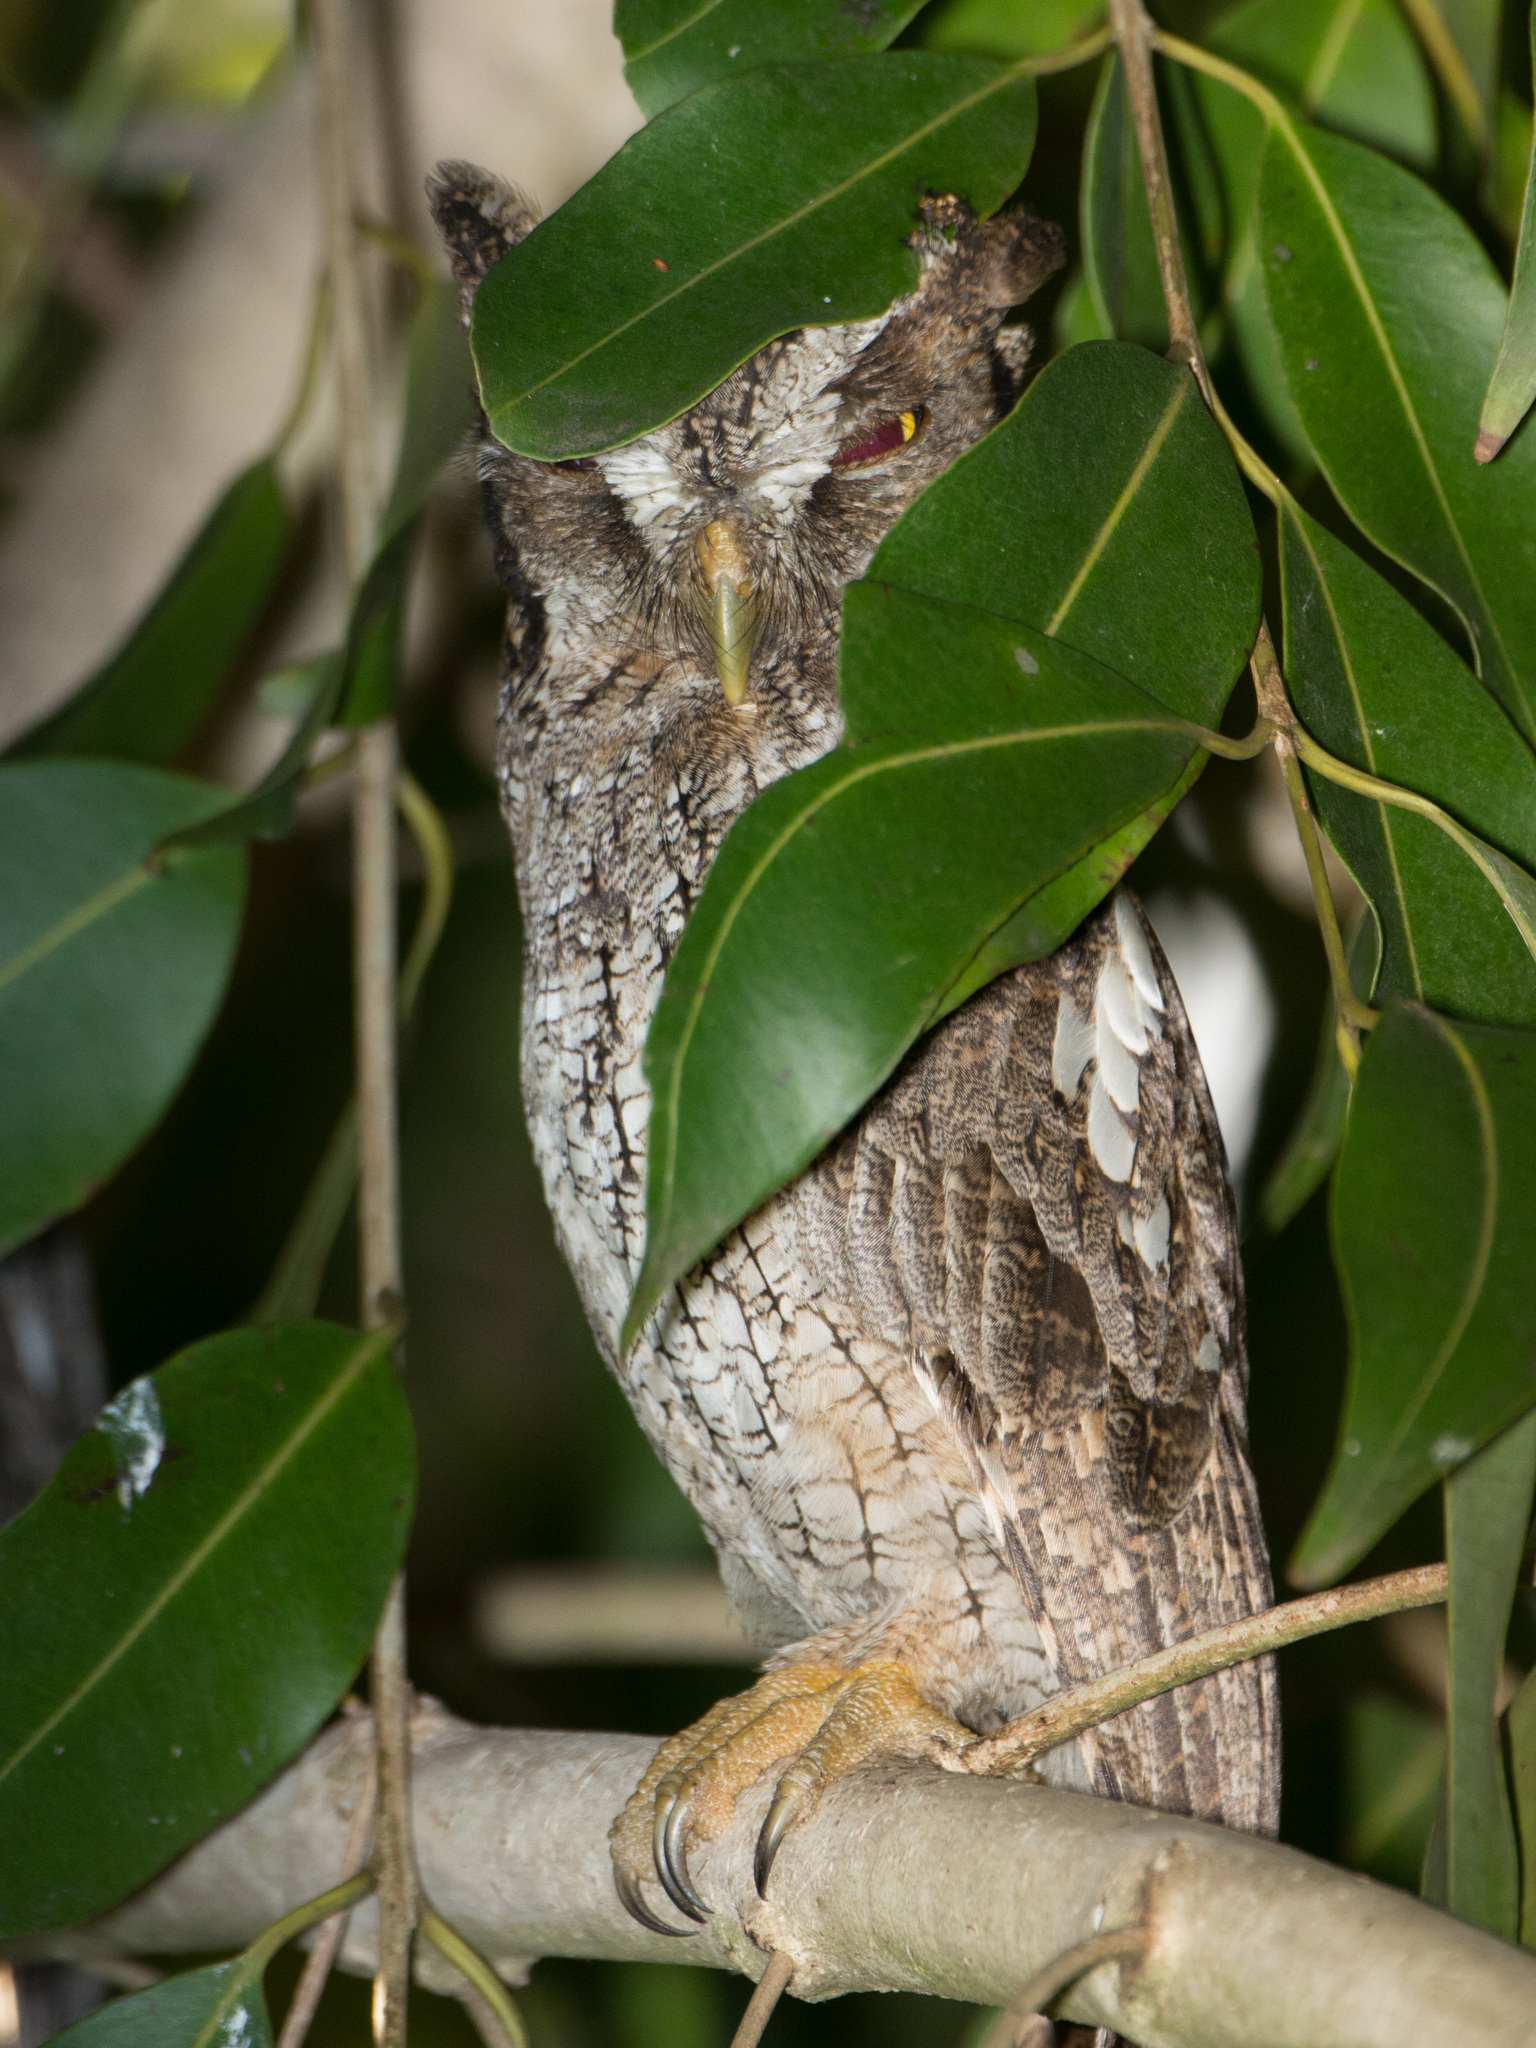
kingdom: Animalia
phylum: Chordata
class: Aves
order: Strigiformes
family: Strigidae
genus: Megascops
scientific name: Megascops choliba
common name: Tropical screech-owl
